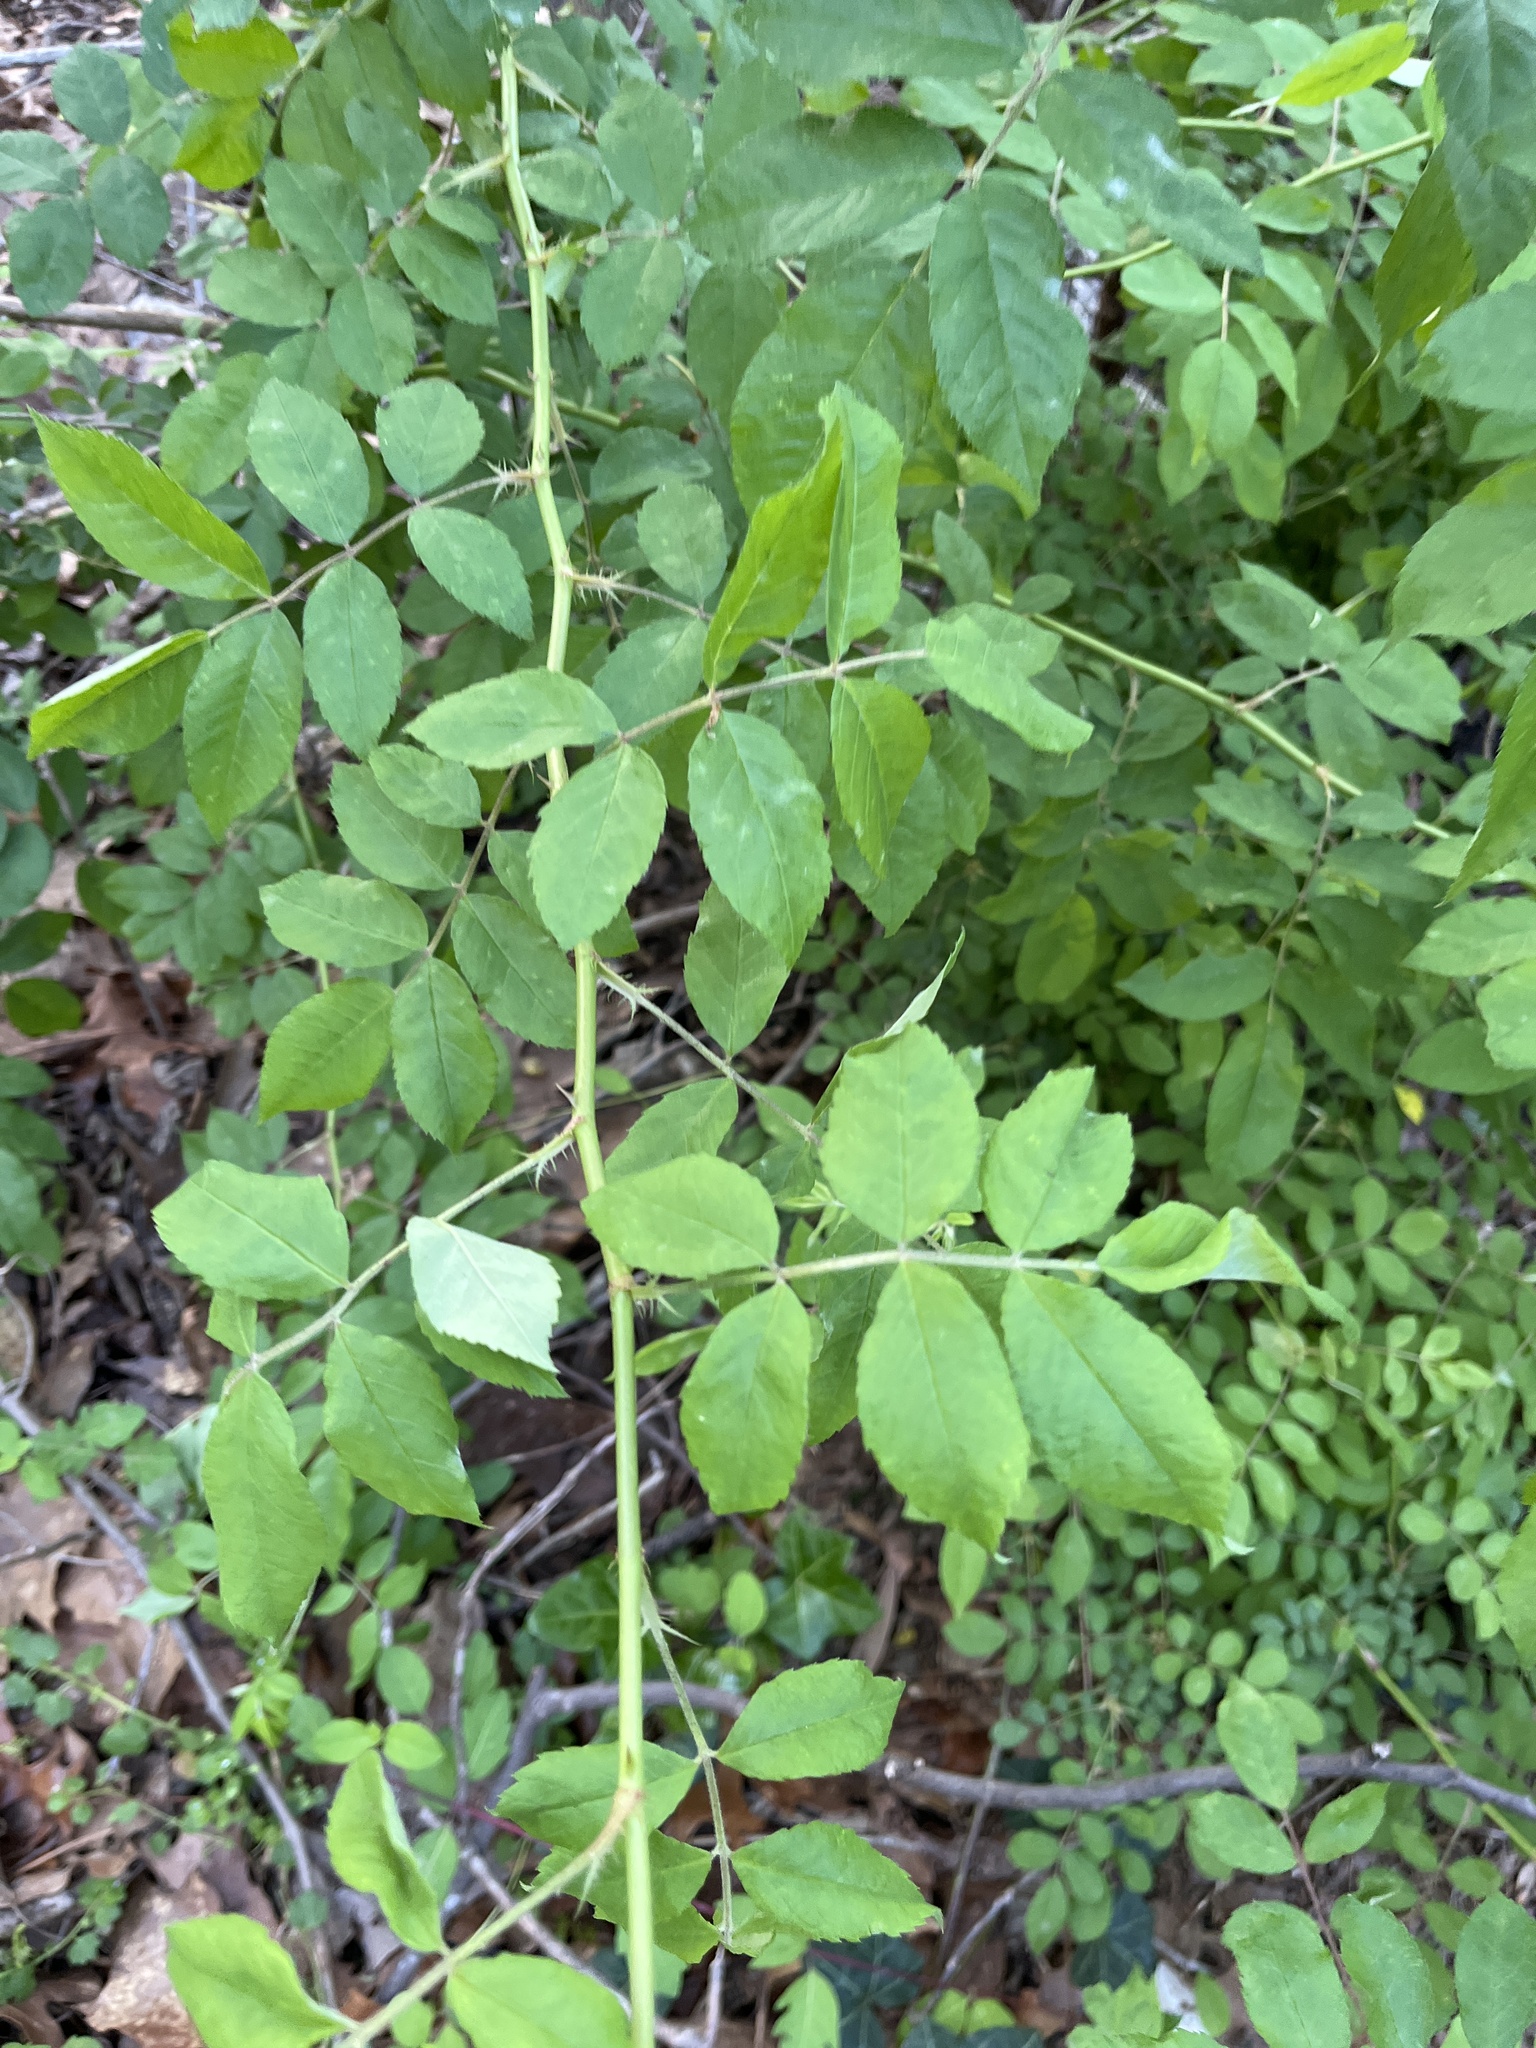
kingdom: Plantae
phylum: Tracheophyta
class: Magnoliopsida
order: Rosales
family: Rosaceae
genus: Rosa
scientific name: Rosa multiflora
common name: Multiflora rose
